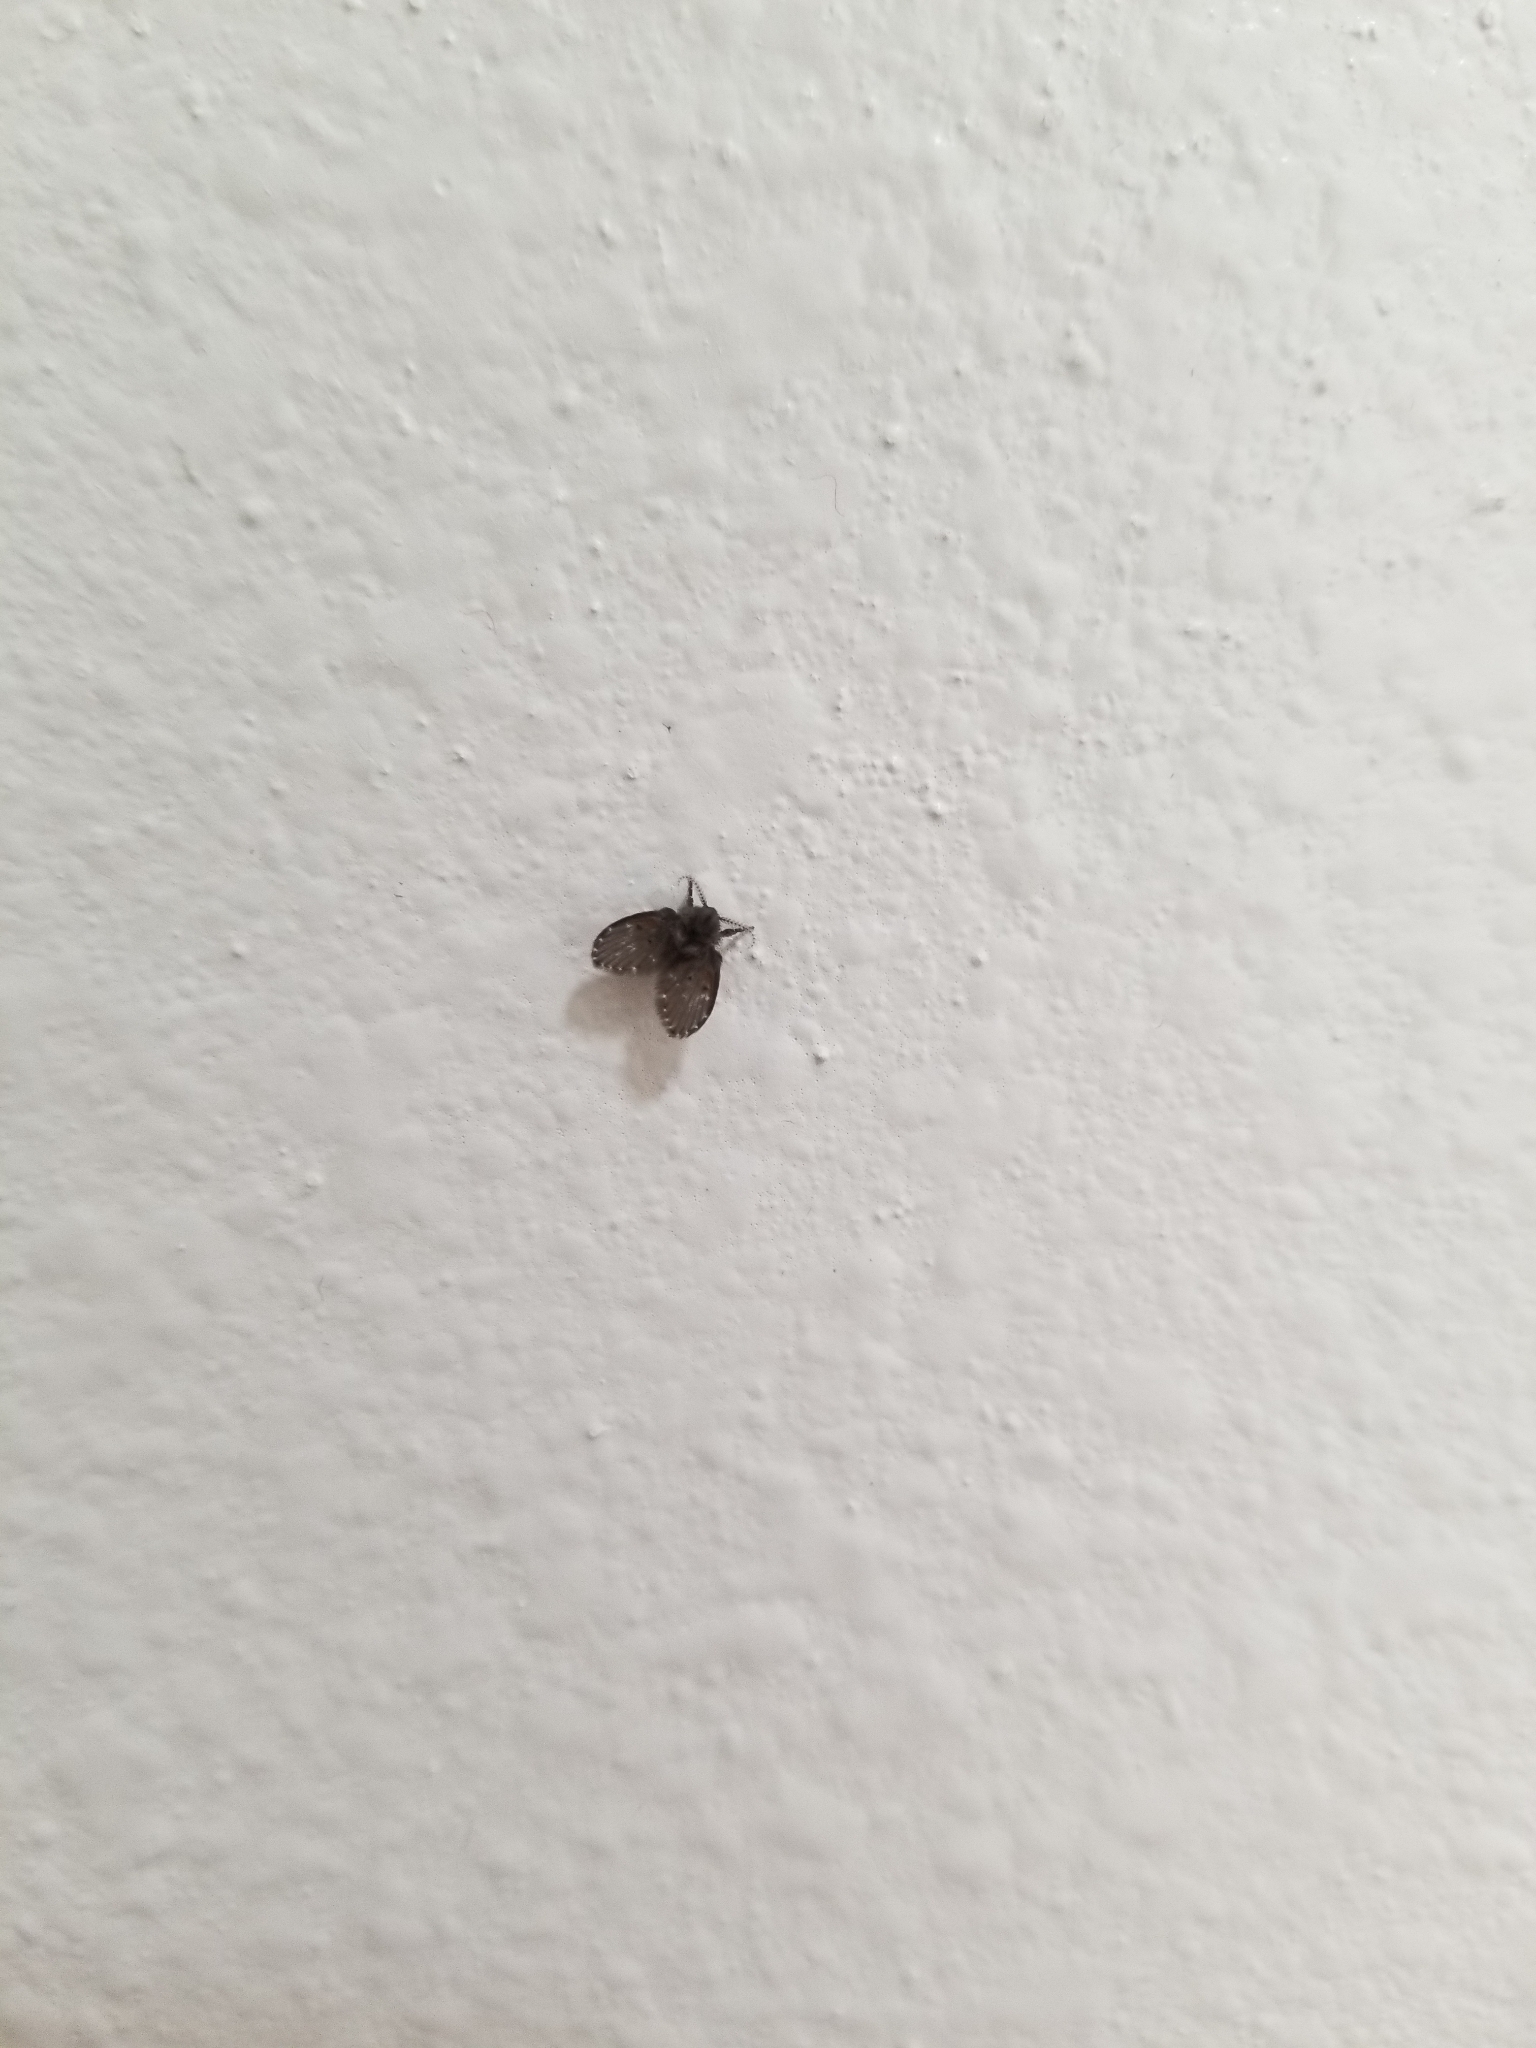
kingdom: Animalia
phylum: Arthropoda
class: Insecta
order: Diptera
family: Psychodidae
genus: Clogmia
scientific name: Clogmia albipunctatus
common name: White-spotted moth fly
